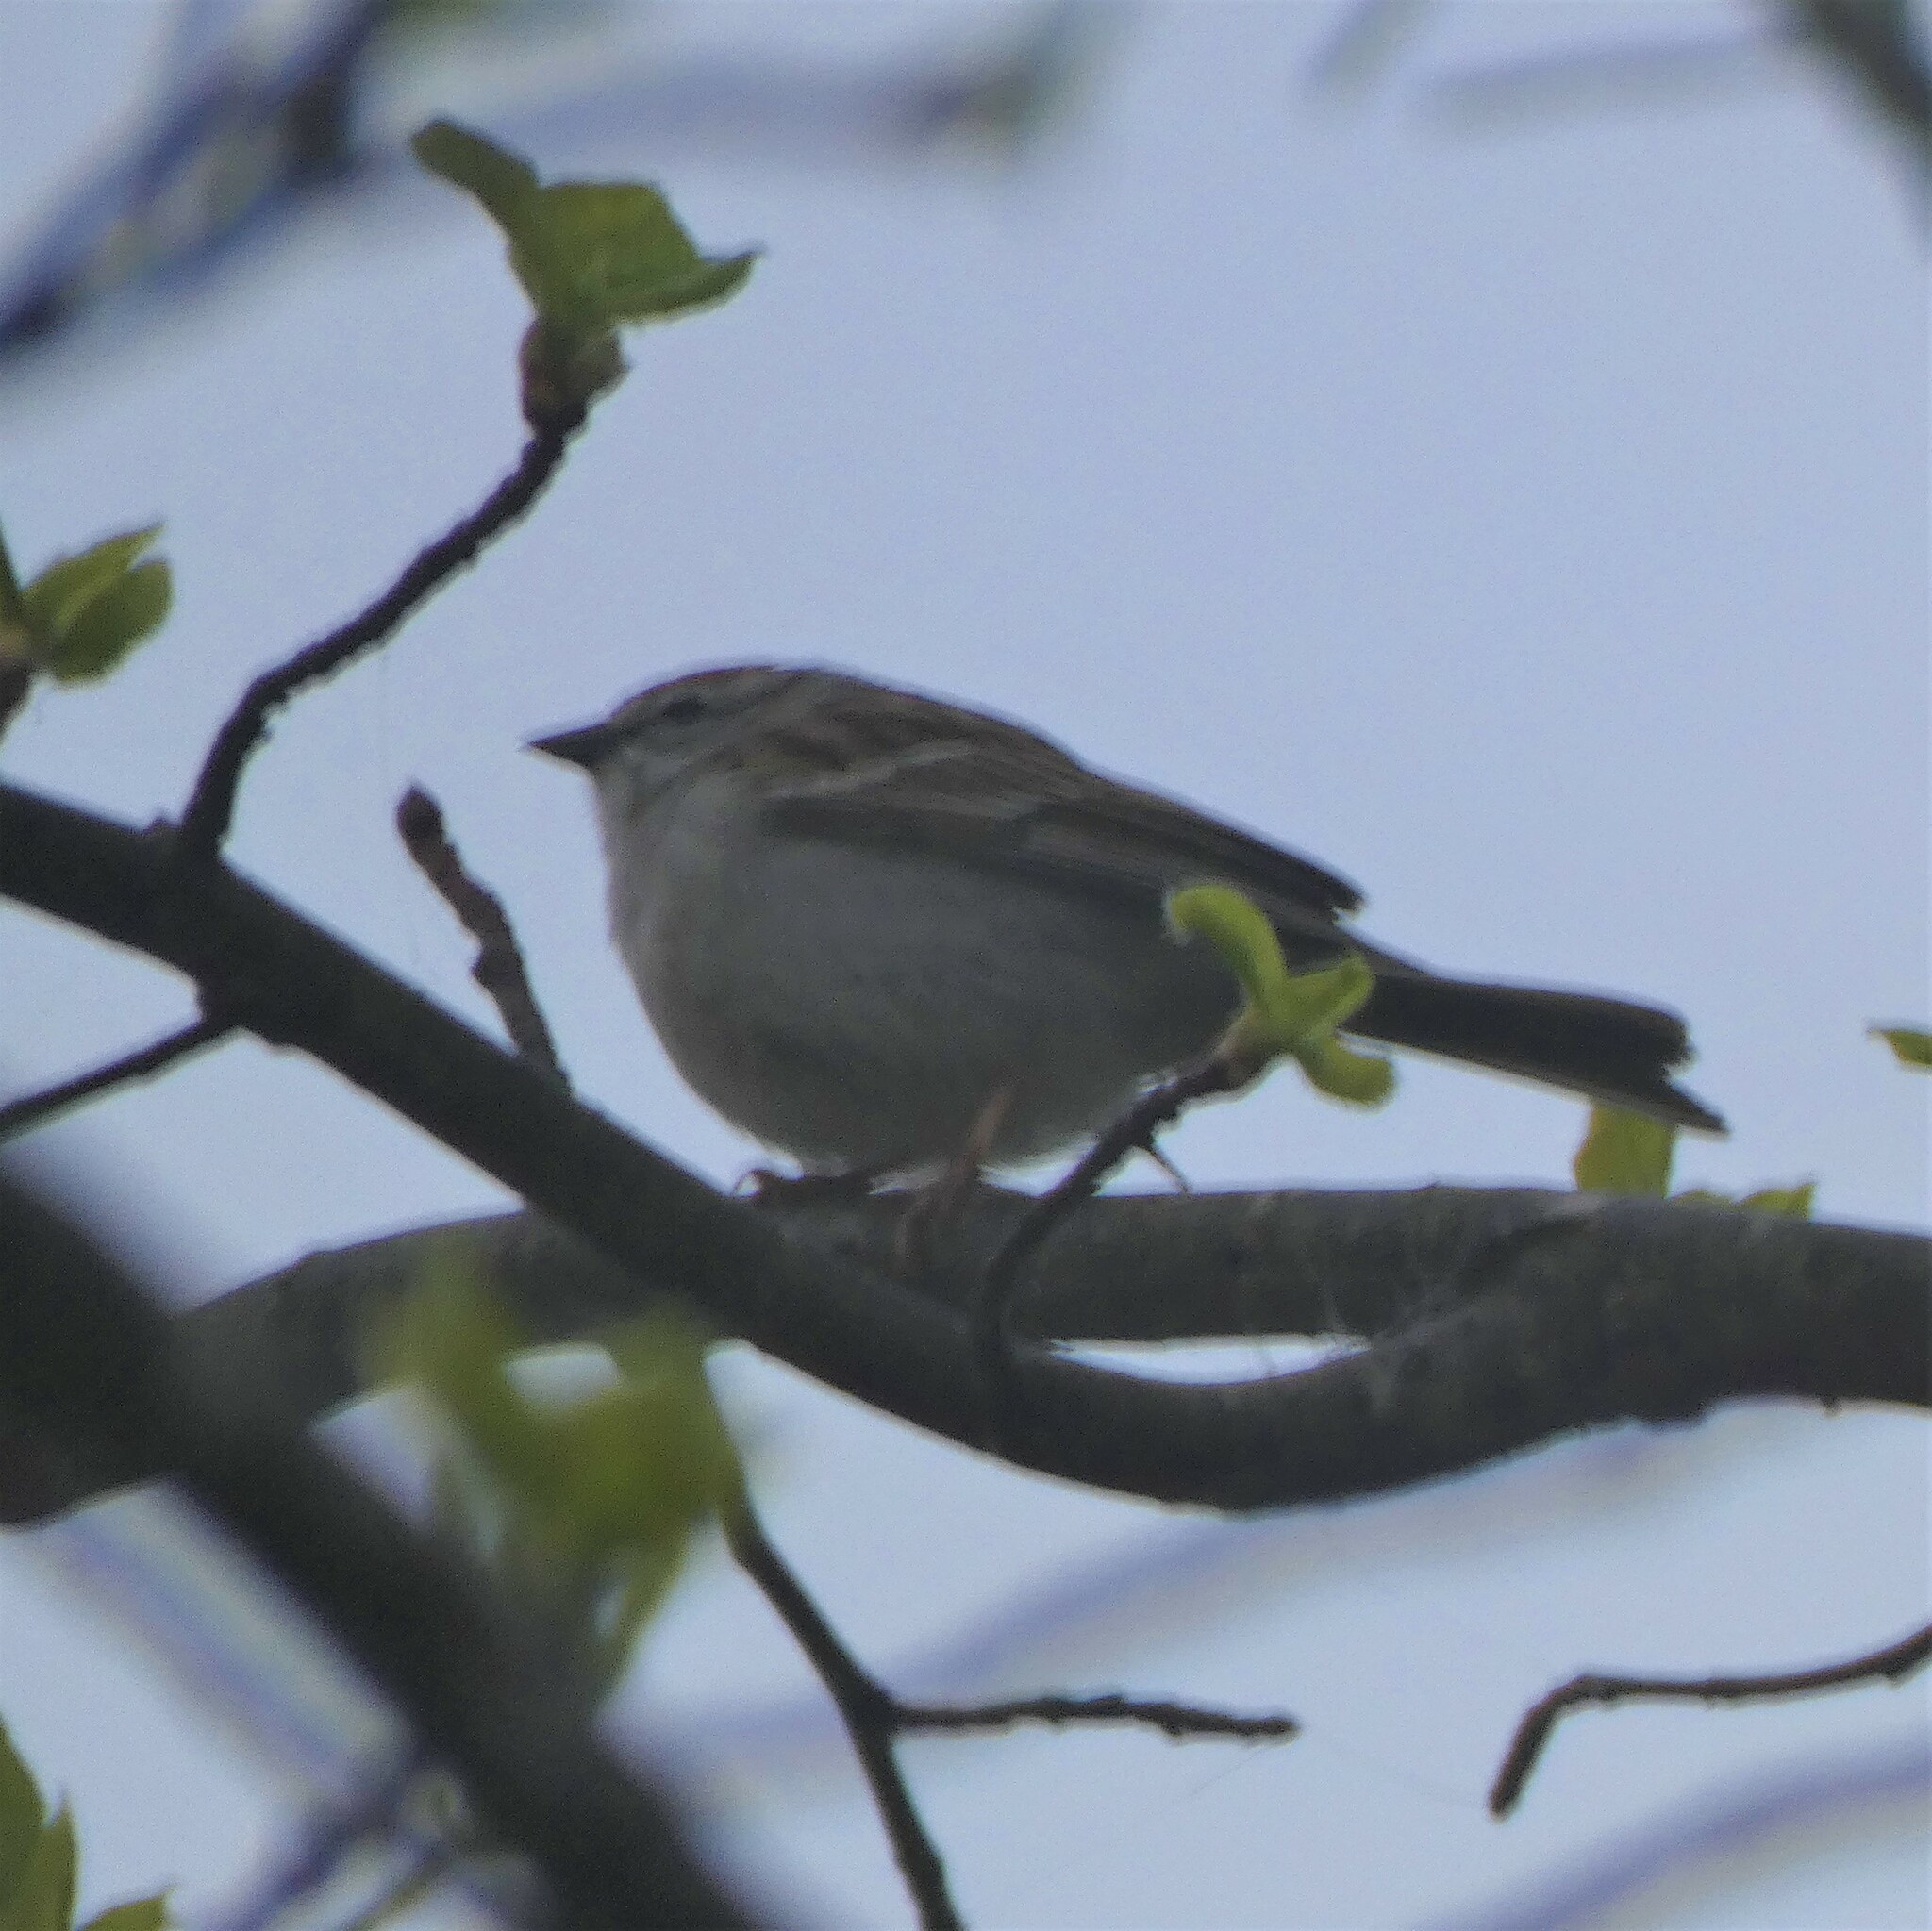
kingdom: Animalia
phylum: Chordata
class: Aves
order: Passeriformes
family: Passerellidae
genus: Spizella
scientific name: Spizella passerina
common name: Chipping sparrow
